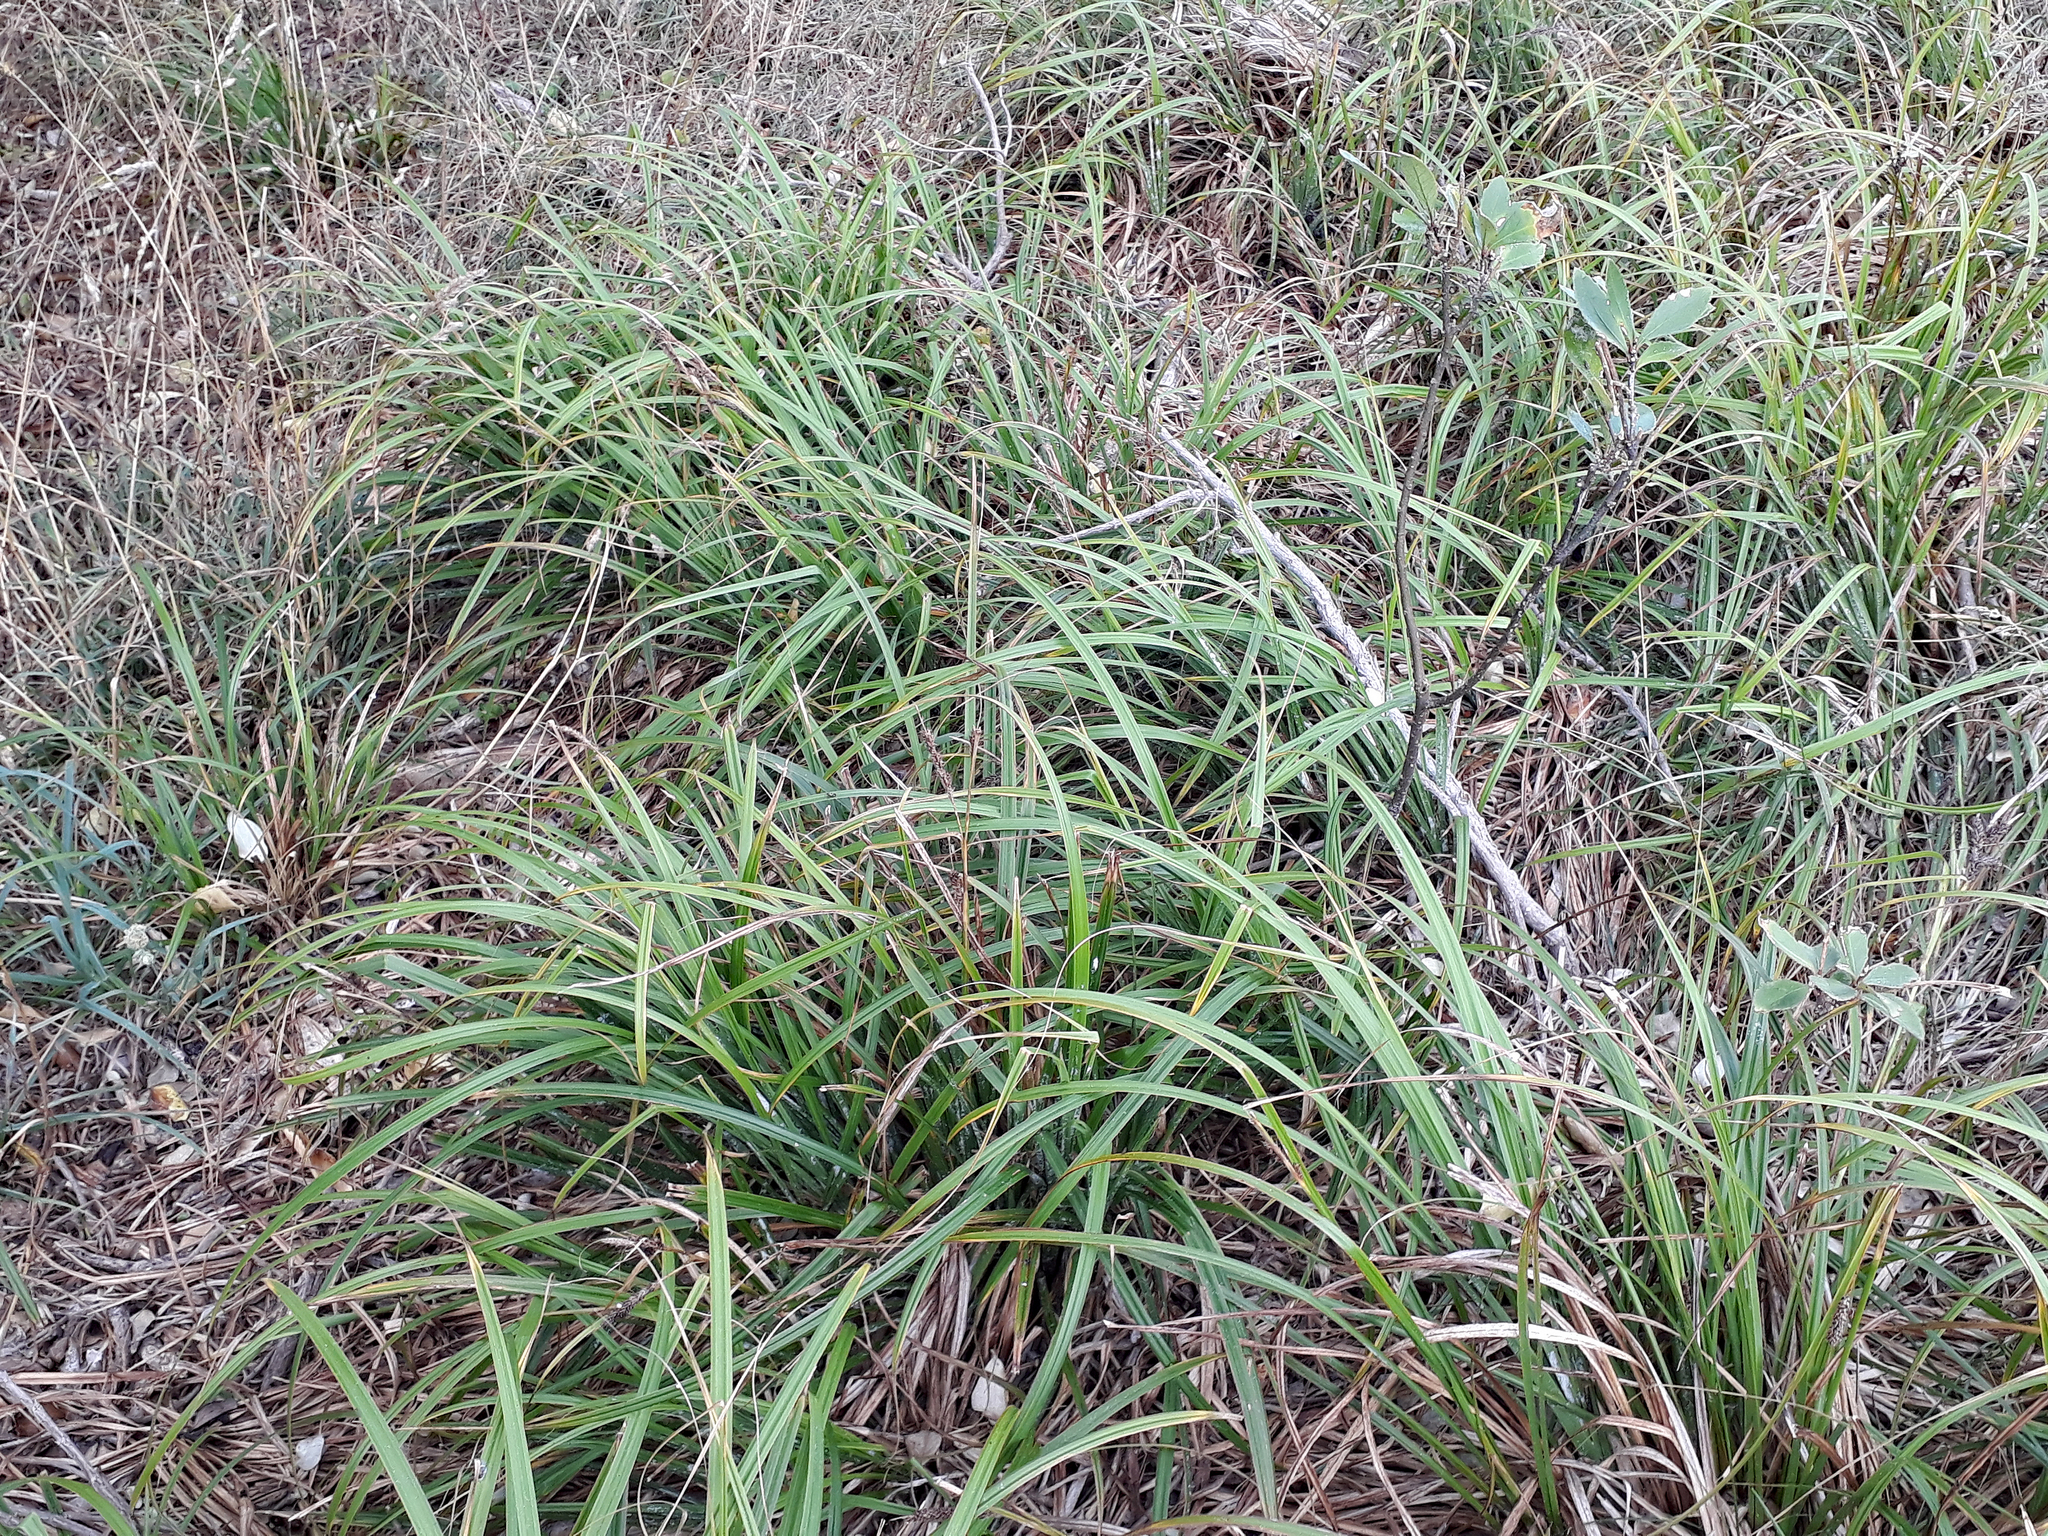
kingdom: Plantae
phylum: Tracheophyta
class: Liliopsida
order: Poales
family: Cyperaceae
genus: Carex
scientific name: Carex ventosa
